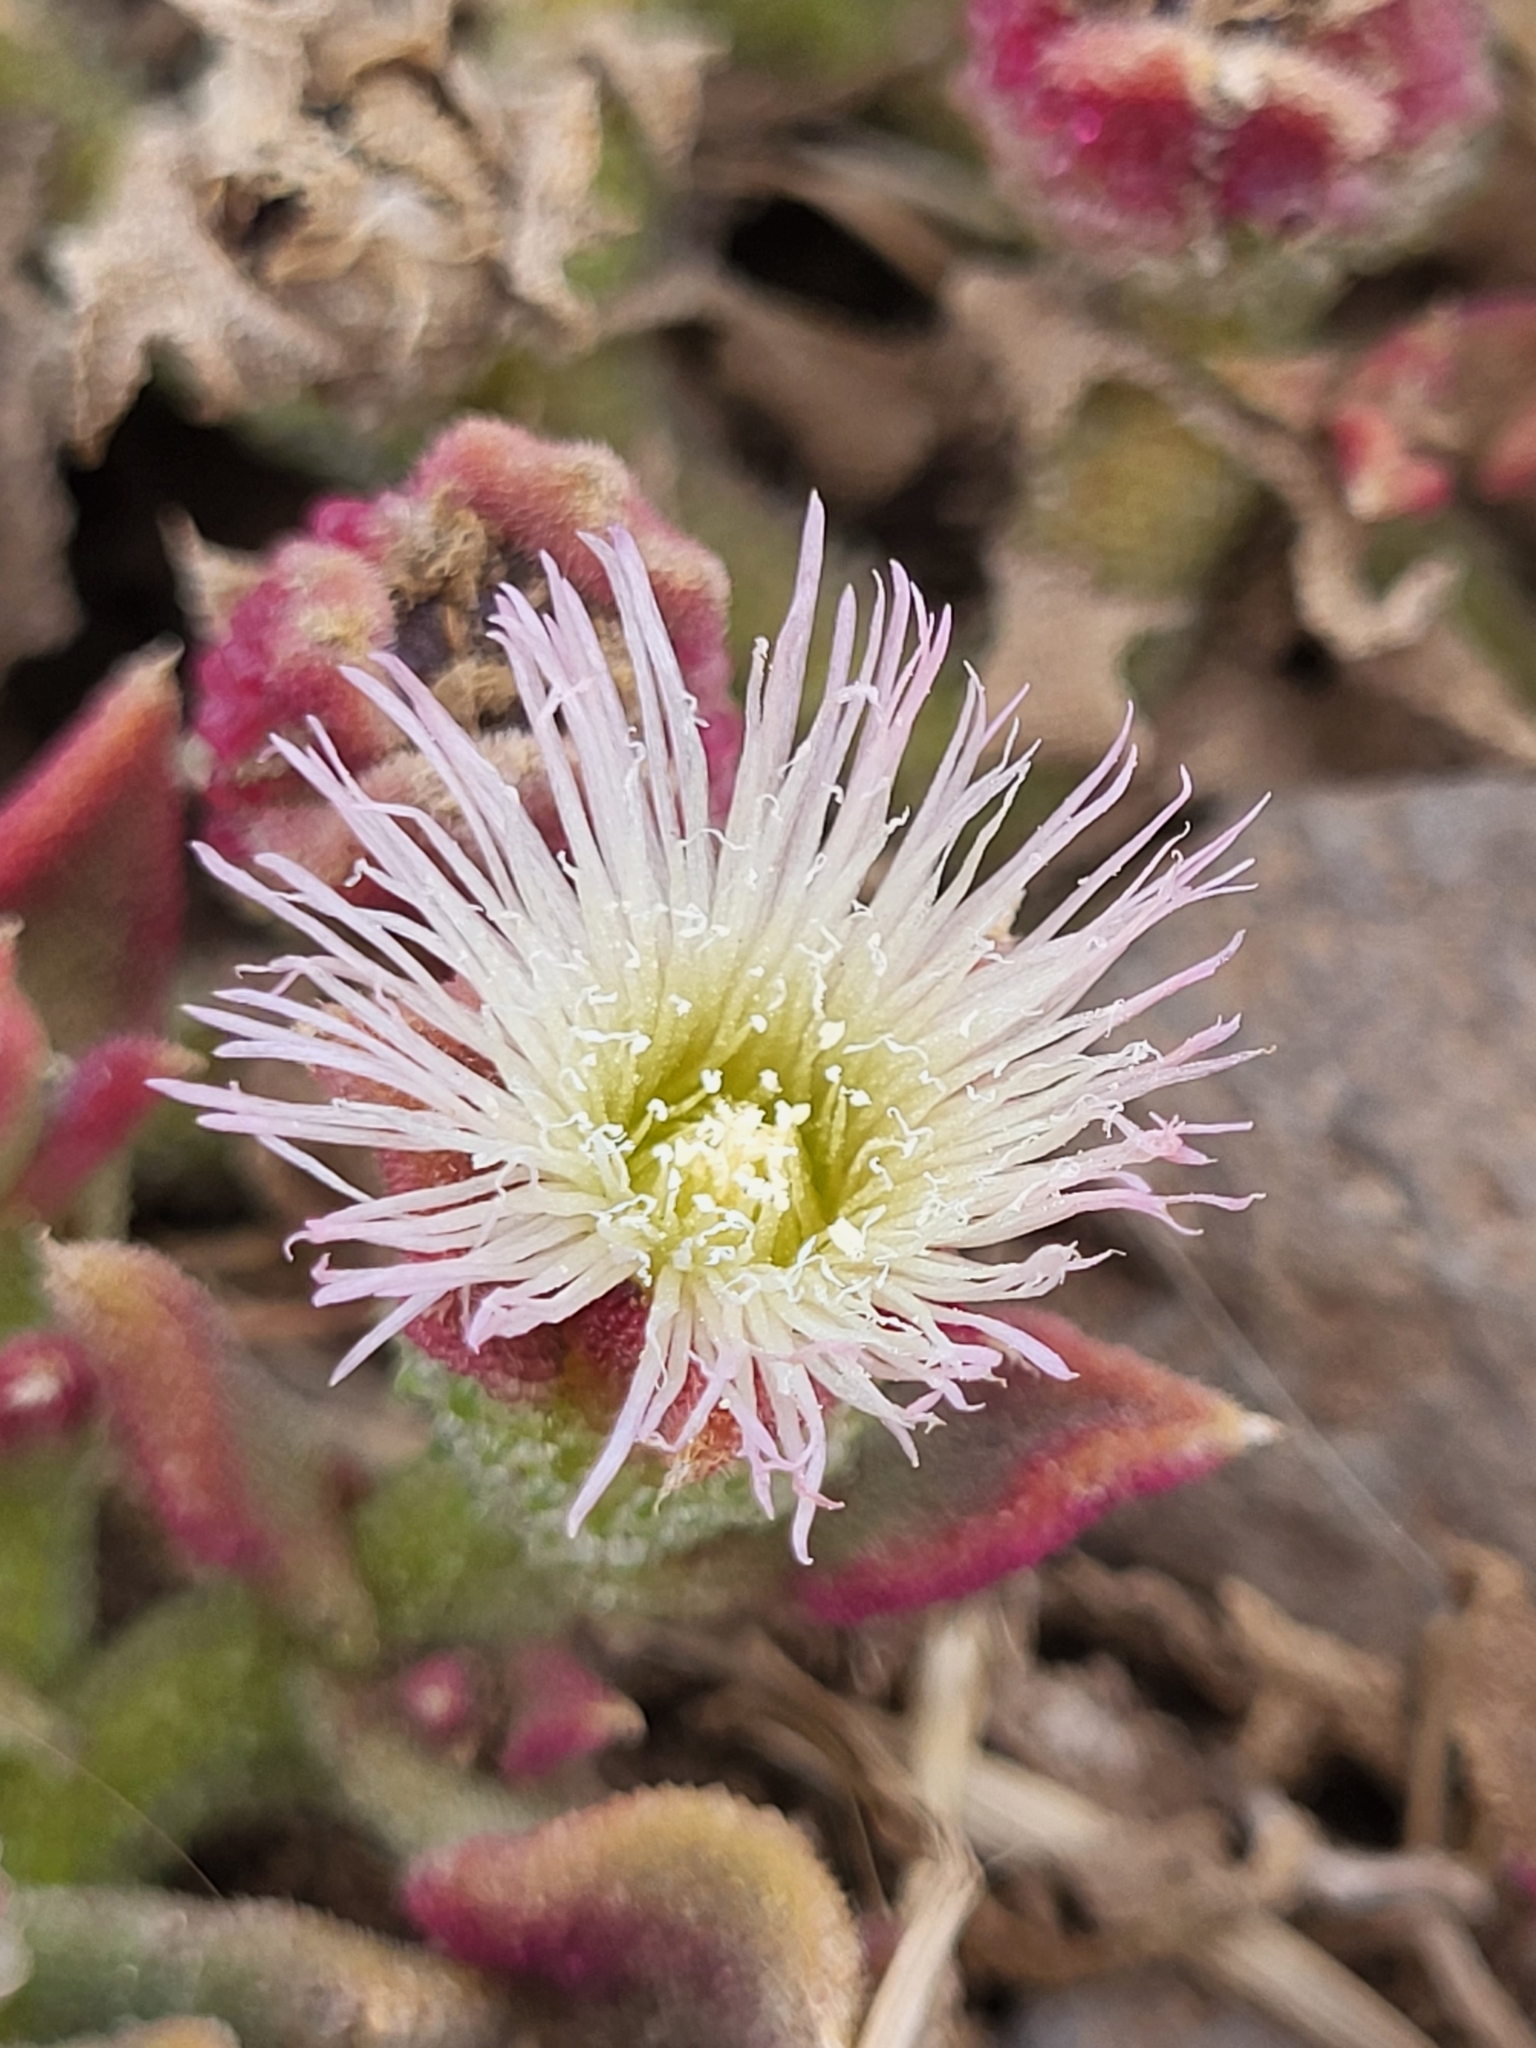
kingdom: Plantae
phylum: Tracheophyta
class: Magnoliopsida
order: Caryophyllales
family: Aizoaceae
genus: Mesembryanthemum
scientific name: Mesembryanthemum crystallinum
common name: Common iceplant
